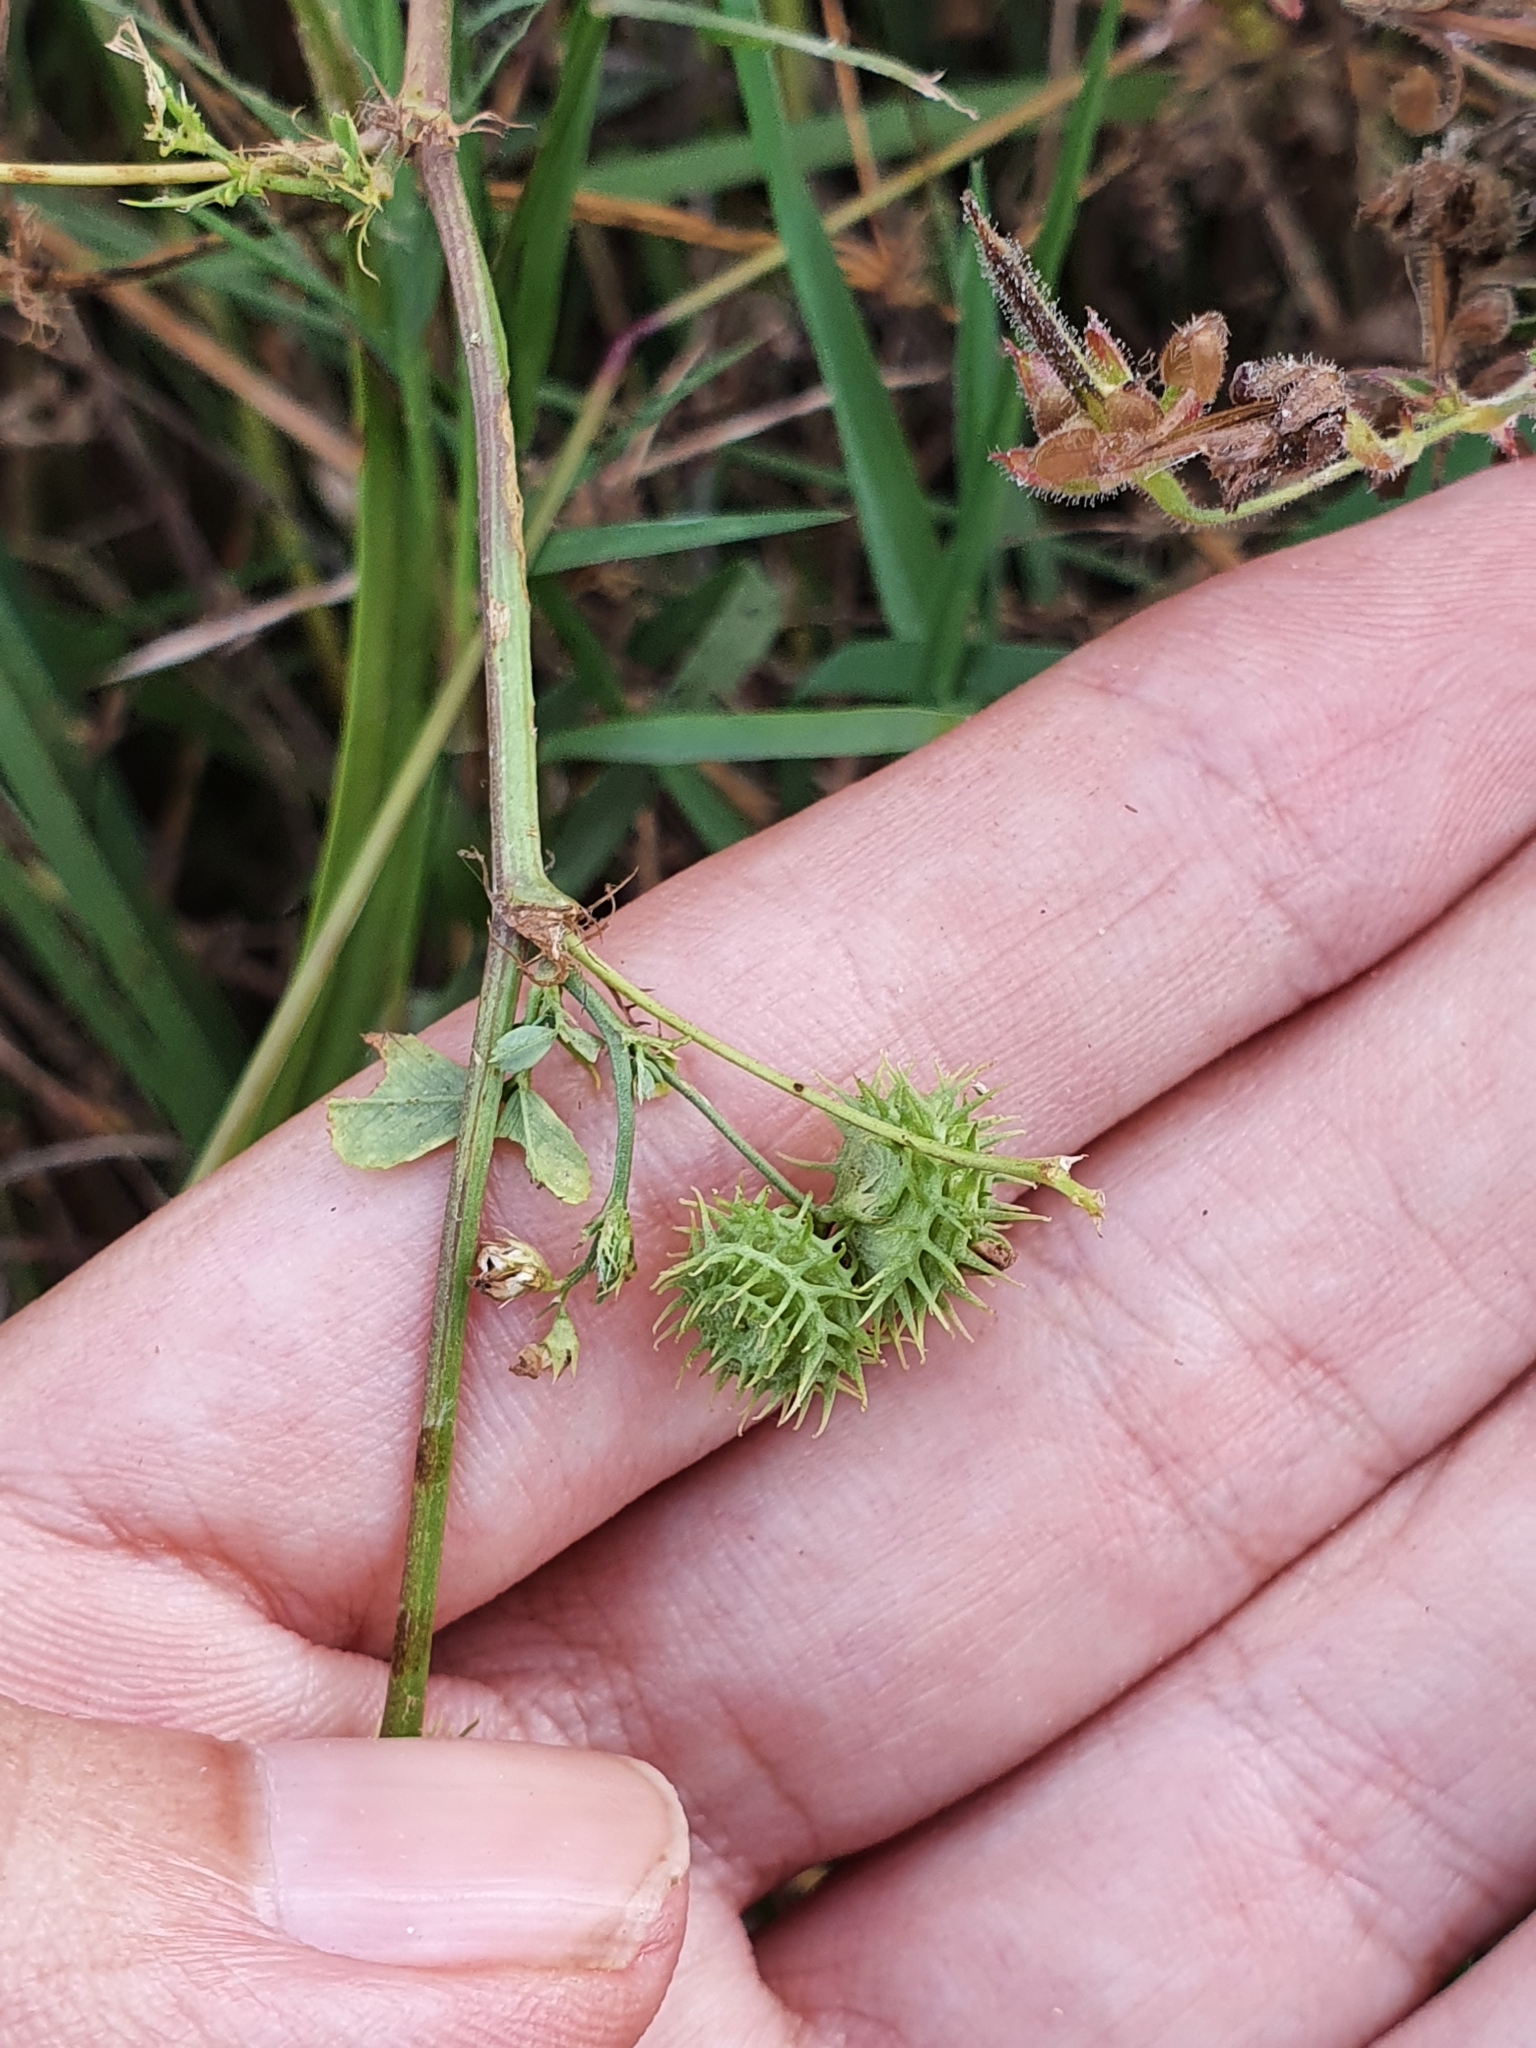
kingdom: Plantae
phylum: Tracheophyta
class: Magnoliopsida
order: Fabales
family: Fabaceae
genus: Medicago
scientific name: Medicago polymorpha
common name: Burclover
